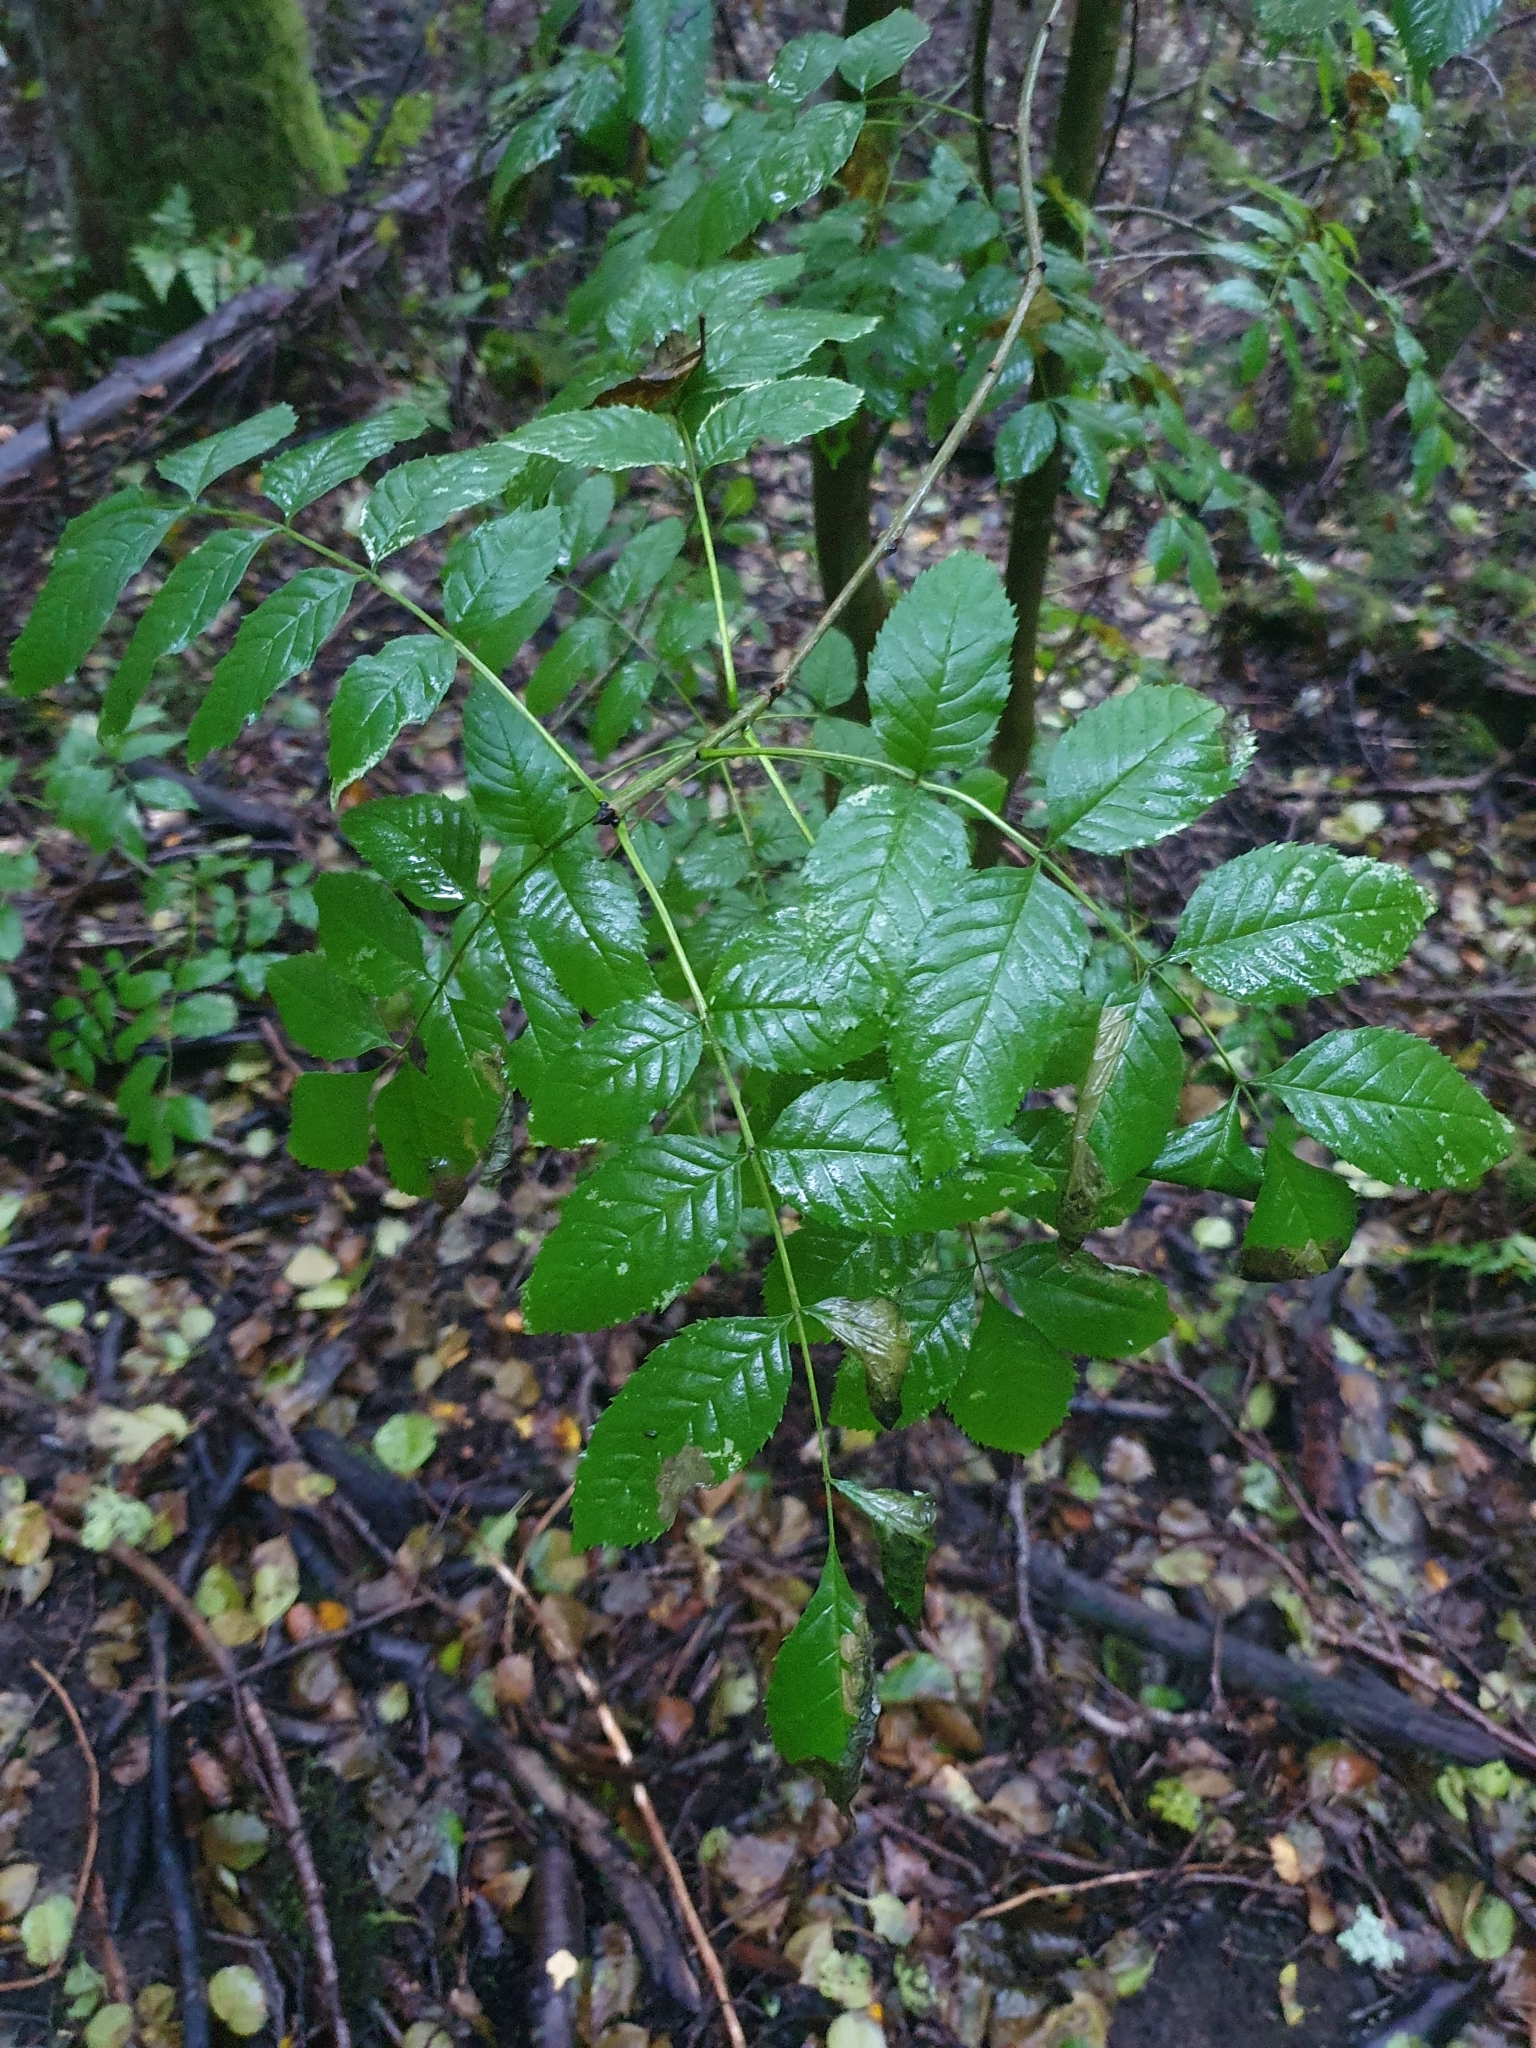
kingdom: Plantae
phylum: Tracheophyta
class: Magnoliopsida
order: Lamiales
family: Oleaceae
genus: Fraxinus
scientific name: Fraxinus excelsior
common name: European ash
